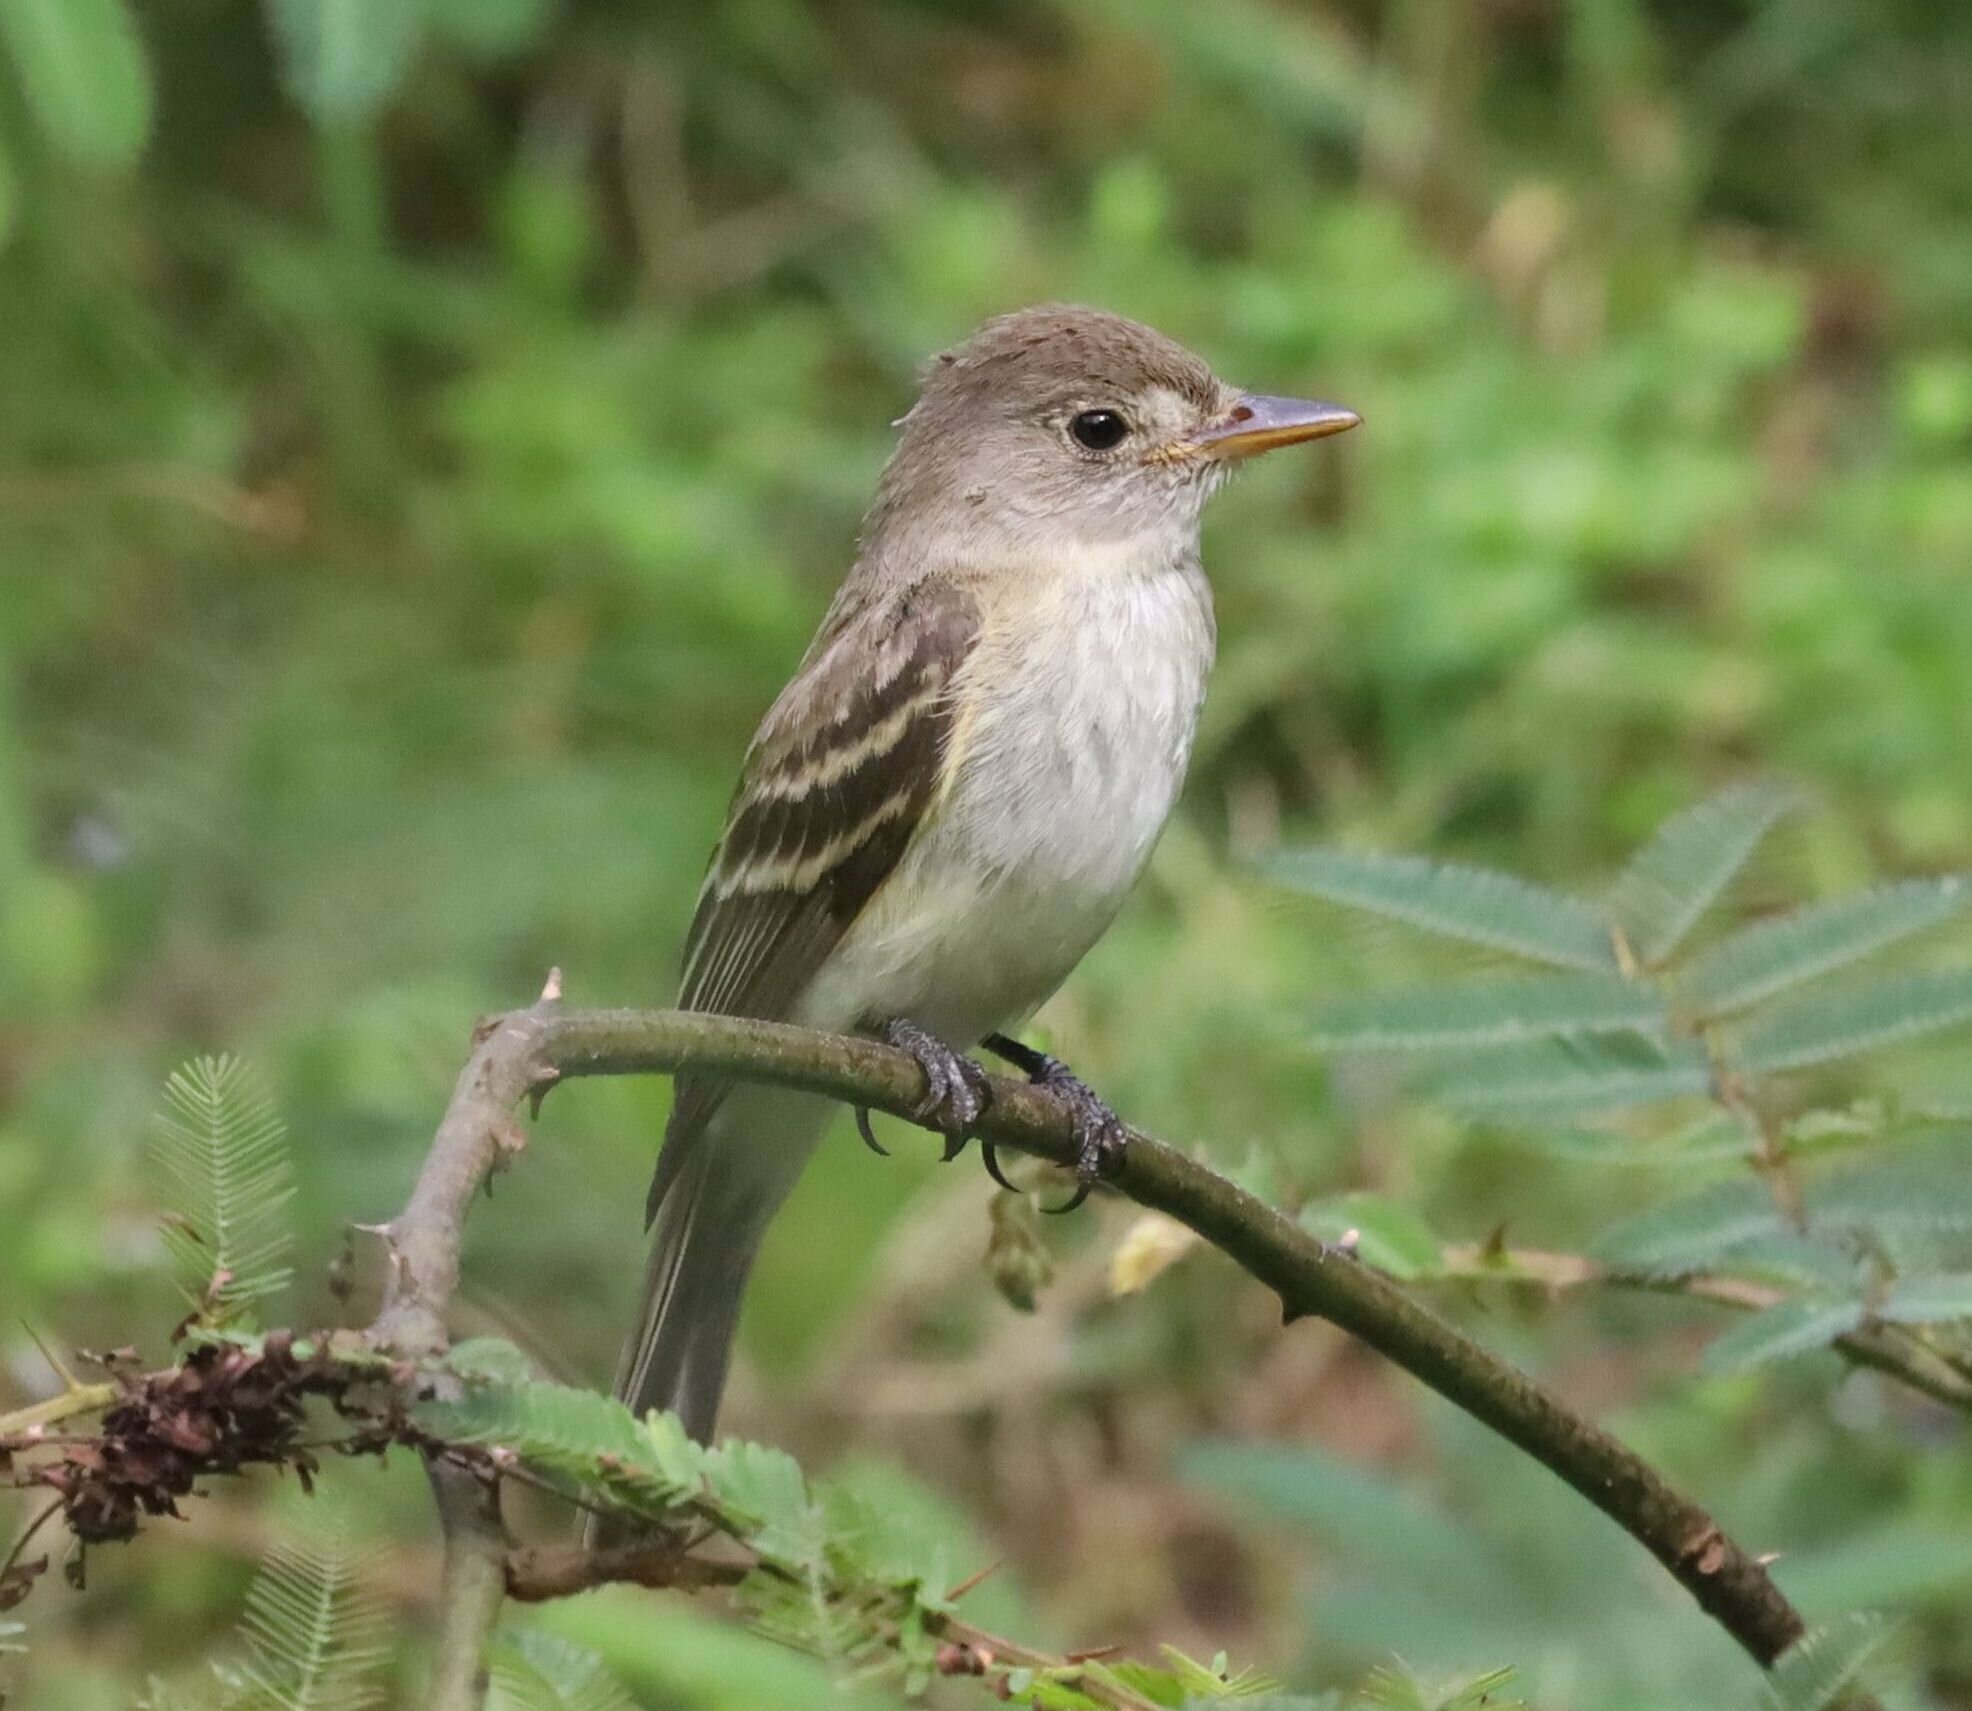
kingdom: Animalia
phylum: Chordata
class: Aves
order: Passeriformes
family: Tyrannidae
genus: Empidonax
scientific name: Empidonax
